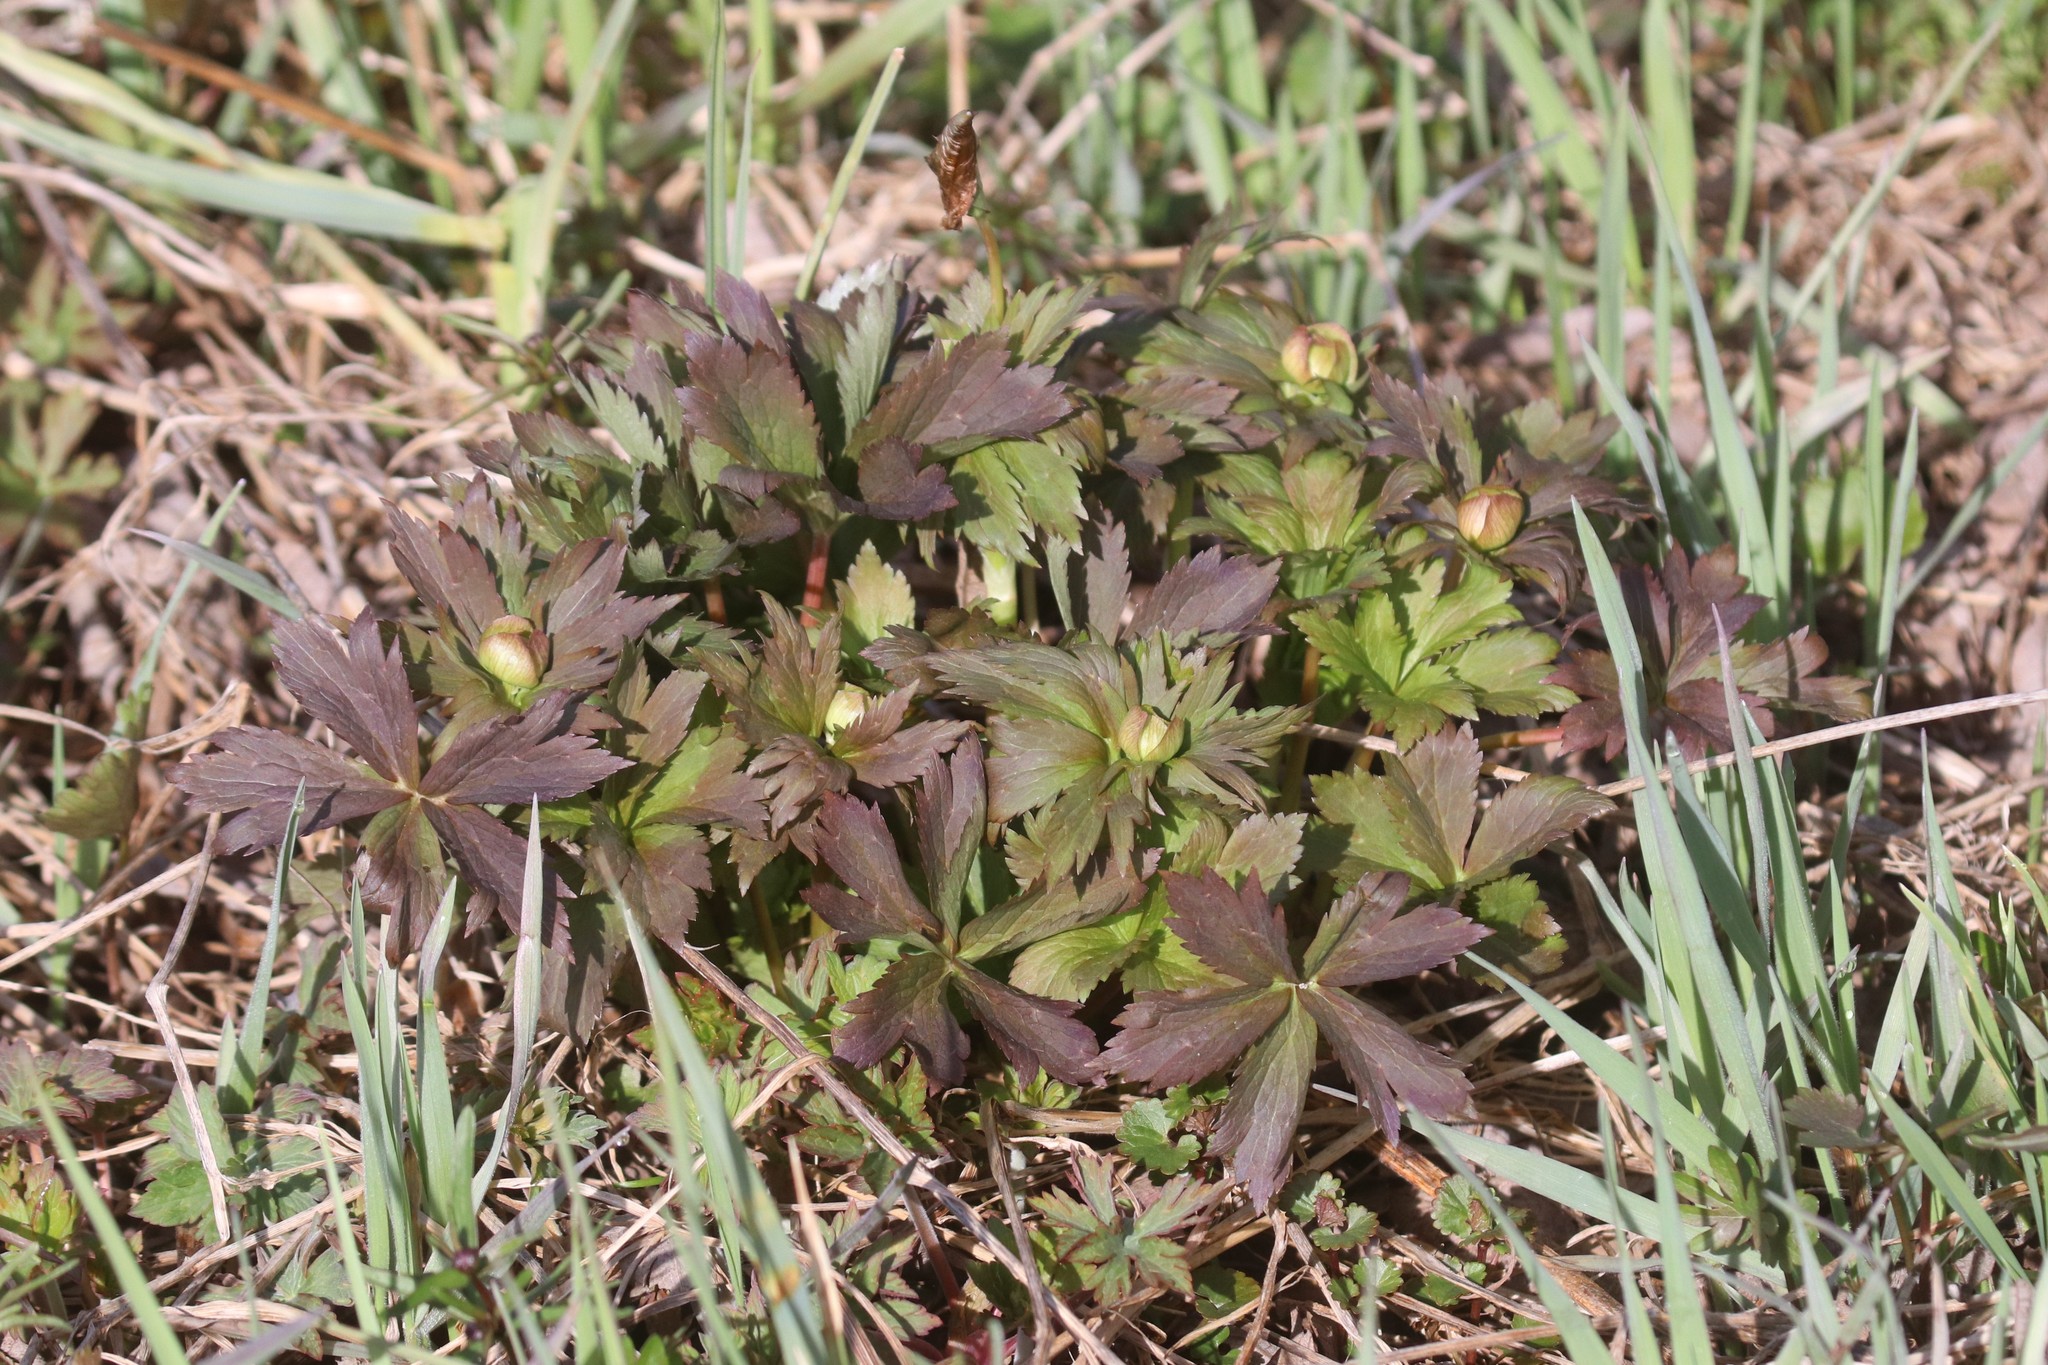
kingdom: Plantae
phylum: Tracheophyta
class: Magnoliopsida
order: Ranunculales
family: Ranunculaceae
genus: Trollius
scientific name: Trollius europaeus
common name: European globeflower
